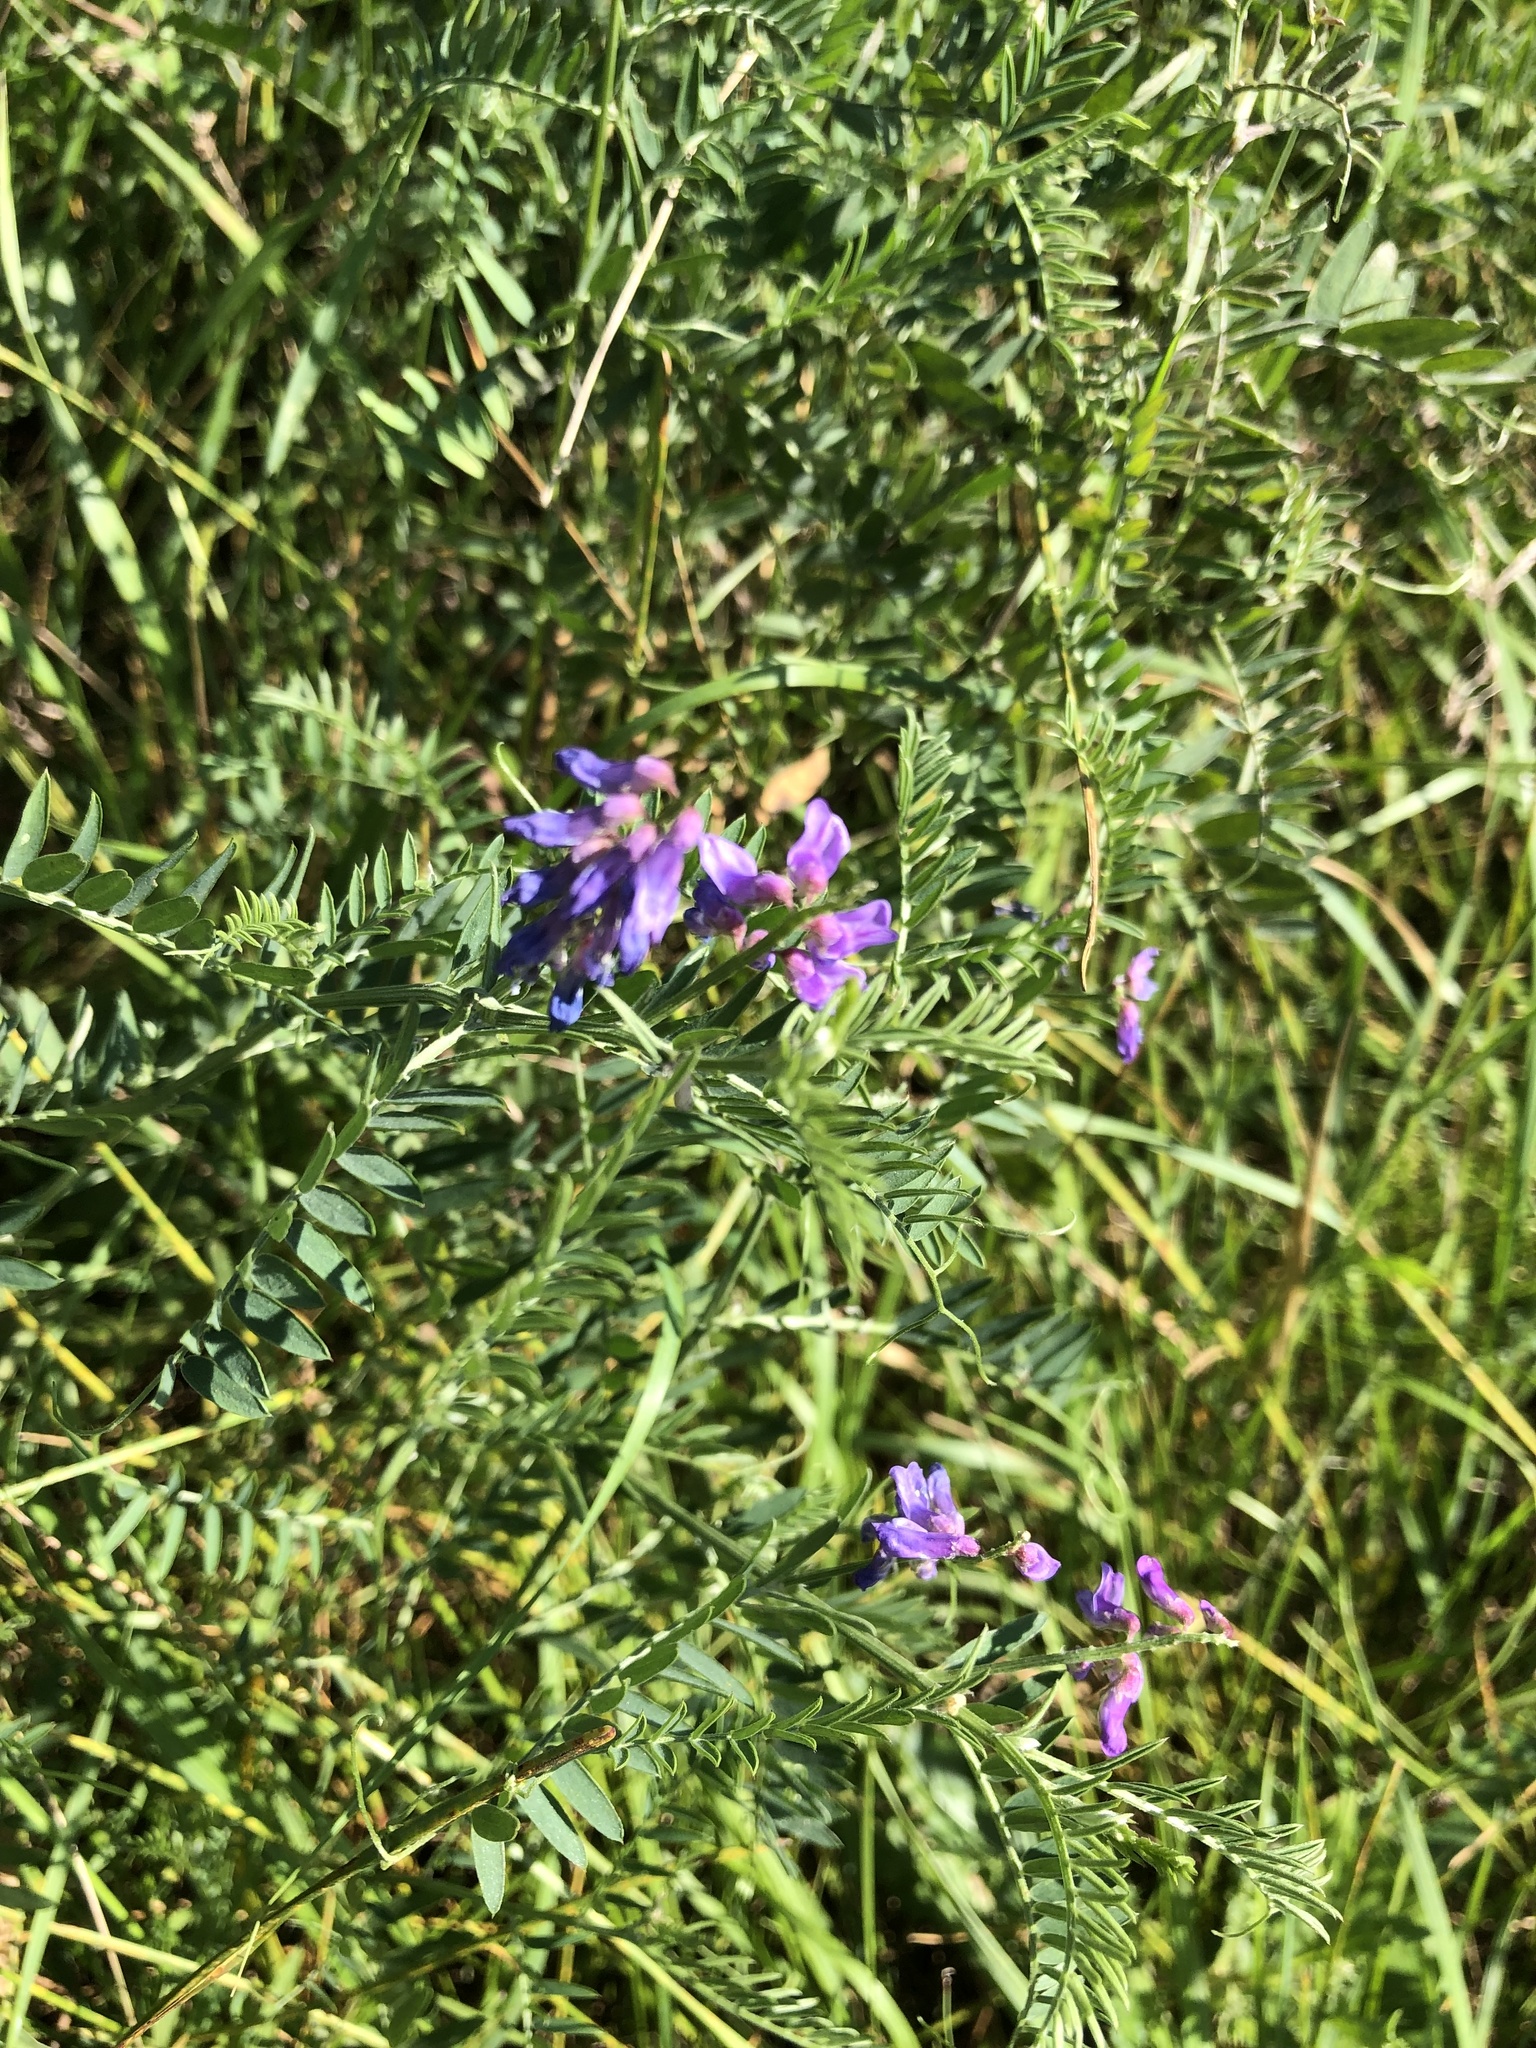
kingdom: Plantae
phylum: Tracheophyta
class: Magnoliopsida
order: Fabales
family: Fabaceae
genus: Vicia
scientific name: Vicia cracca
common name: Bird vetch
